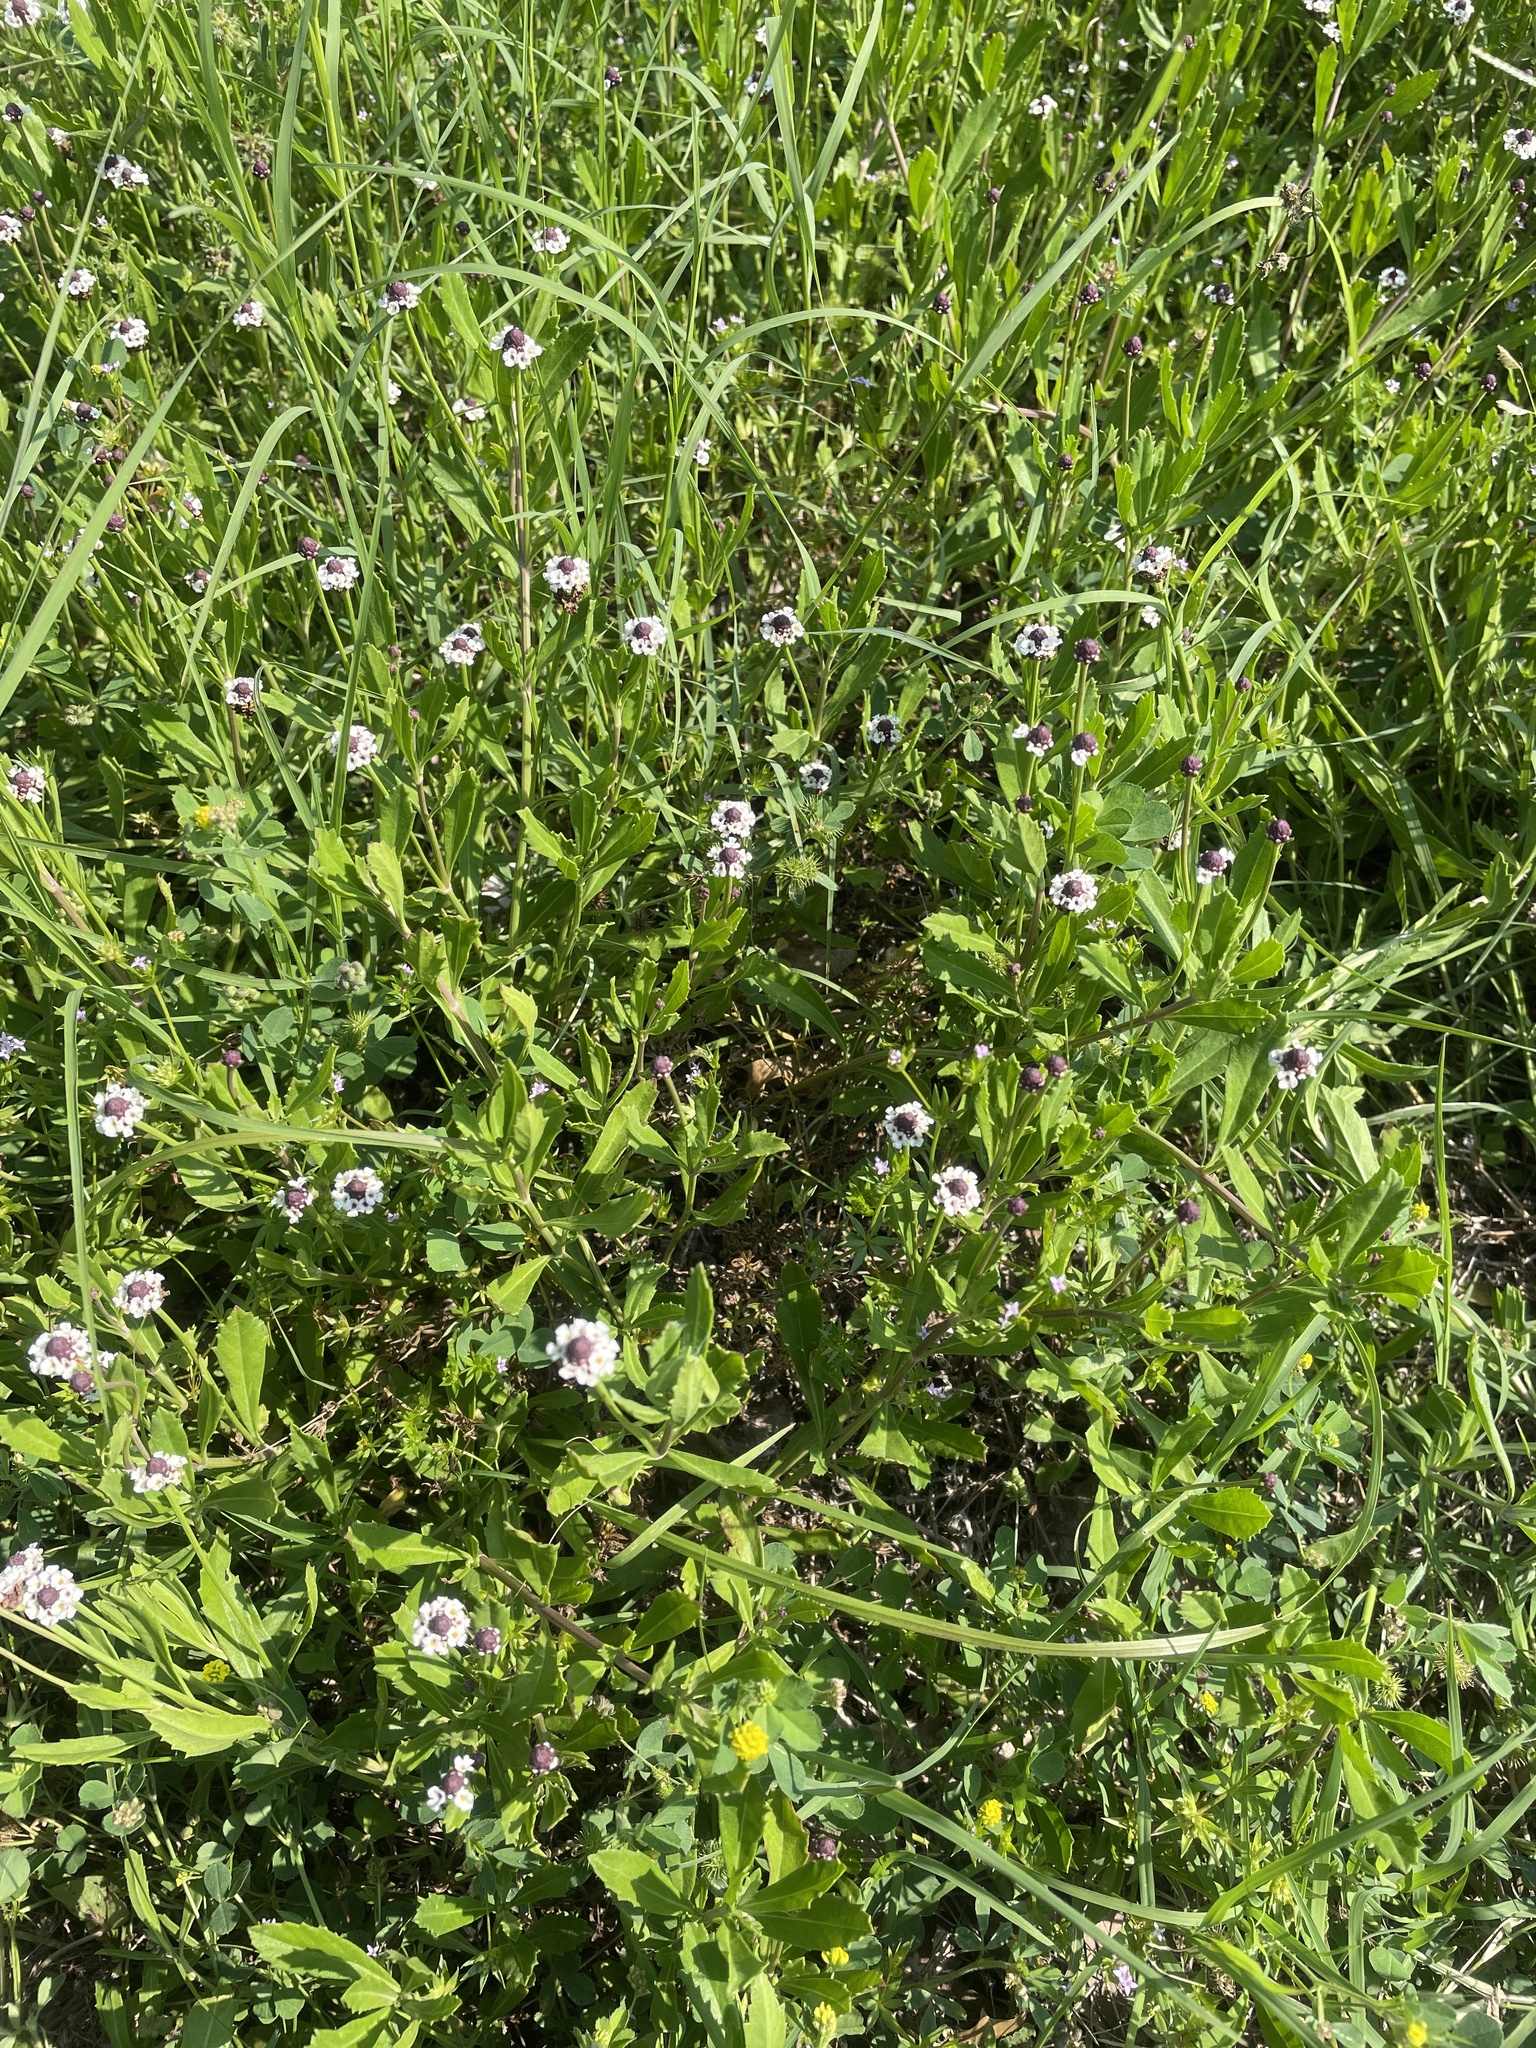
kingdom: Plantae
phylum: Tracheophyta
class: Magnoliopsida
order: Lamiales
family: Verbenaceae
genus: Phyla
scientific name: Phyla nodiflora
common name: Frogfruit
